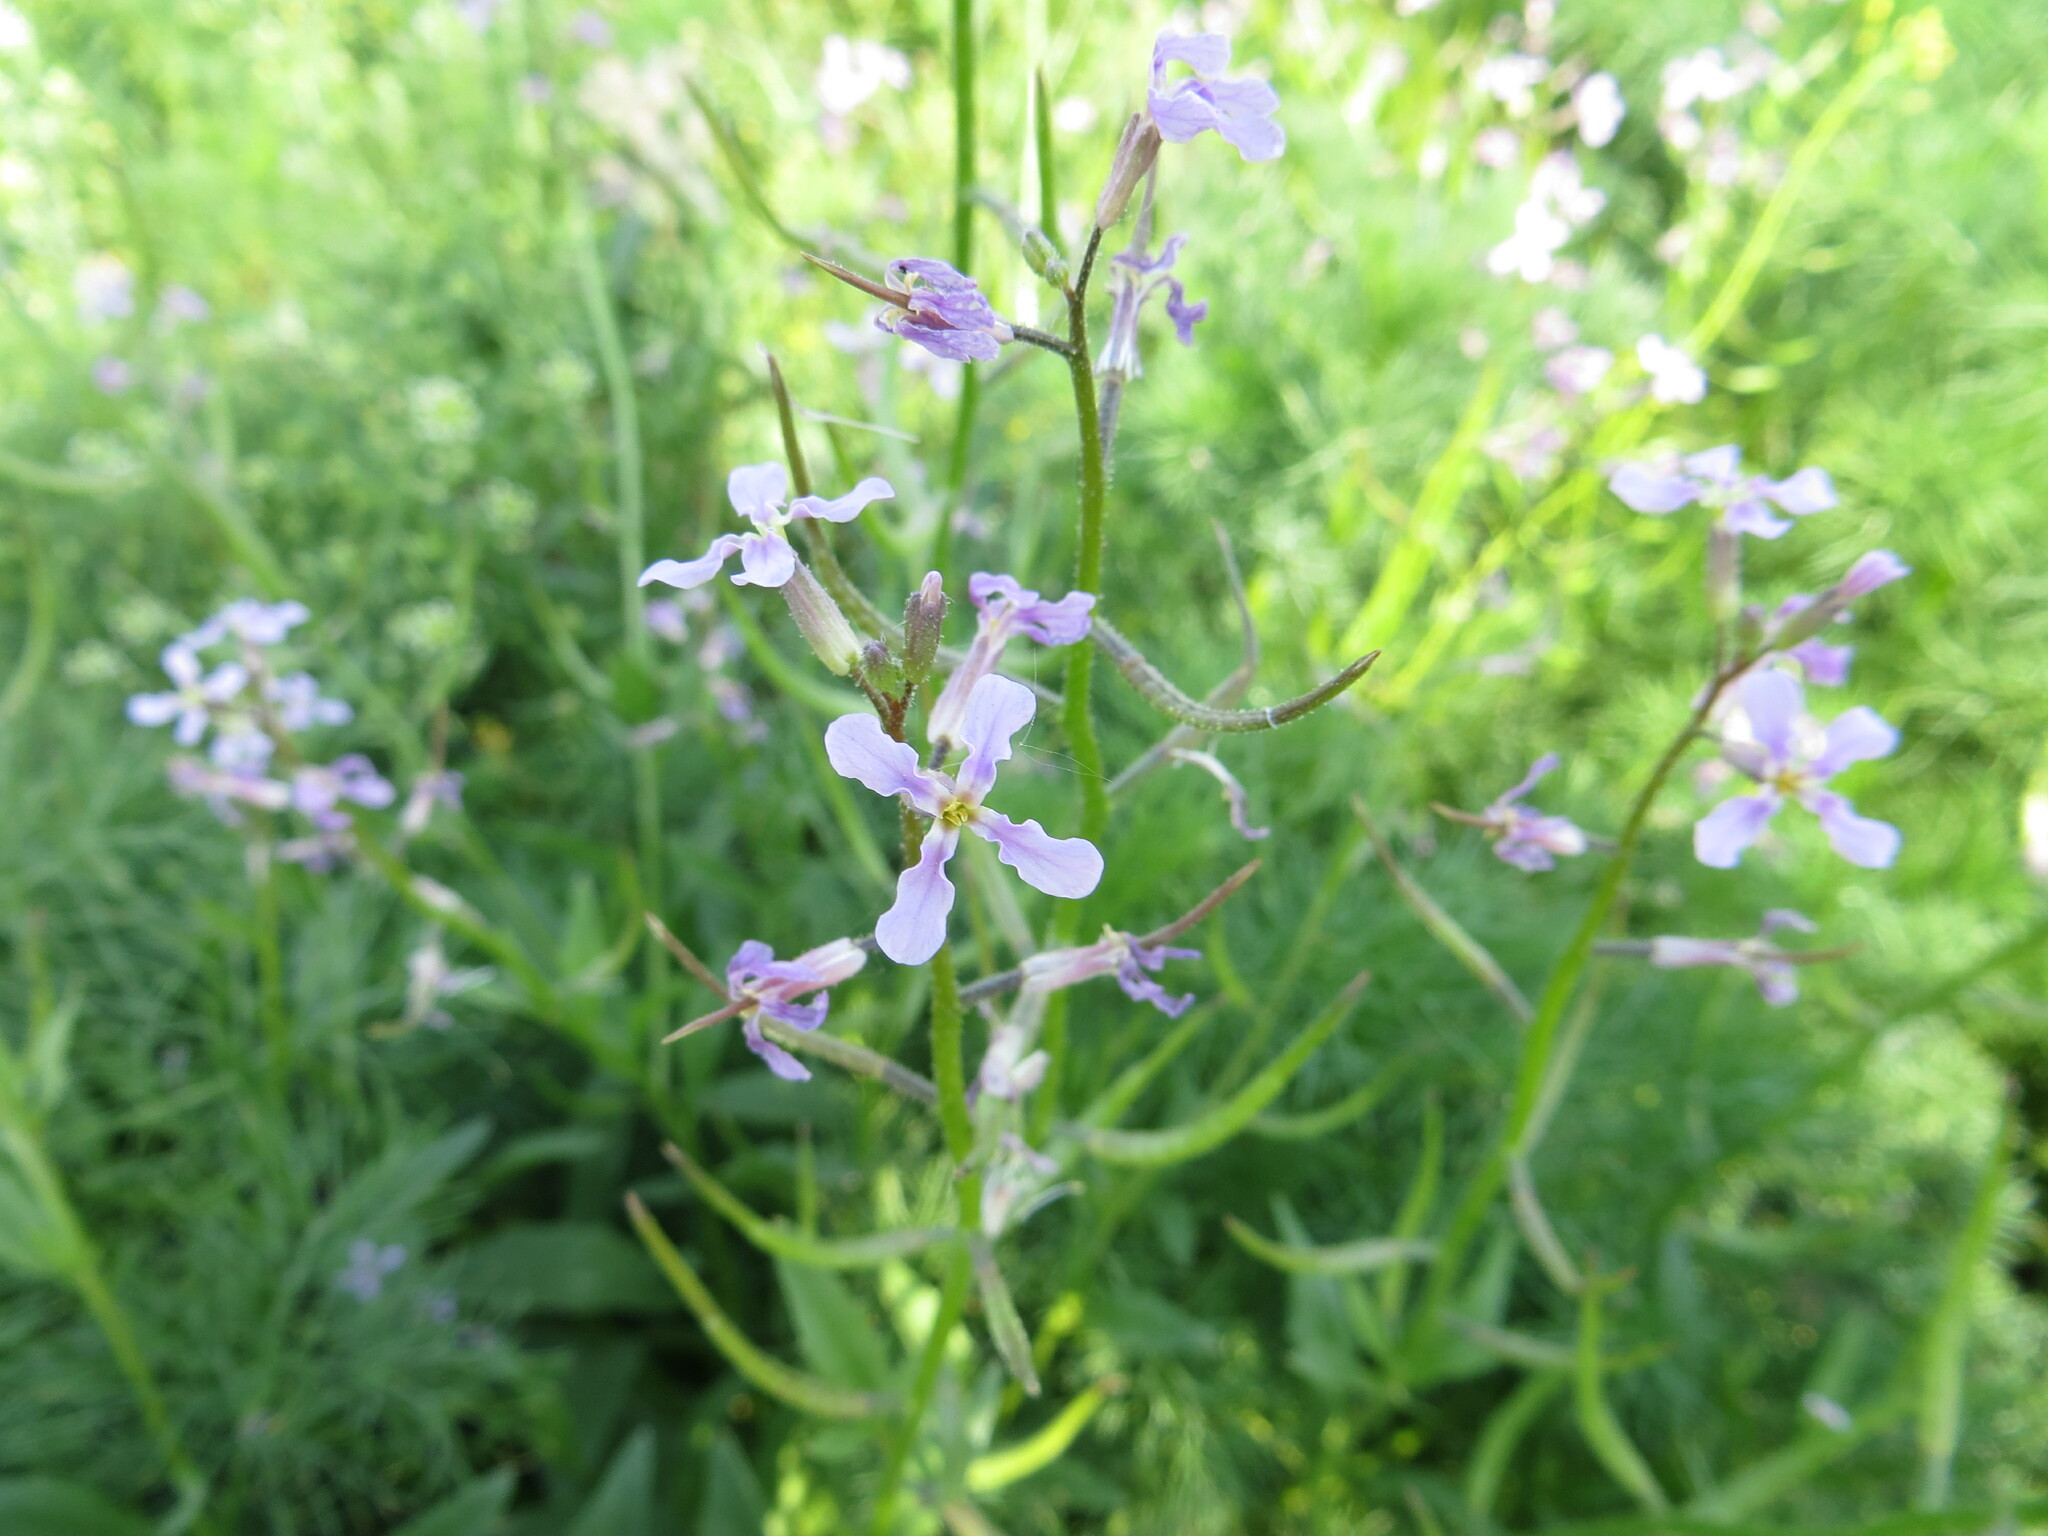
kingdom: Plantae
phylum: Tracheophyta
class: Magnoliopsida
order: Brassicales
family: Brassicaceae
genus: Chorispora
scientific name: Chorispora tenella
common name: Crossflower
